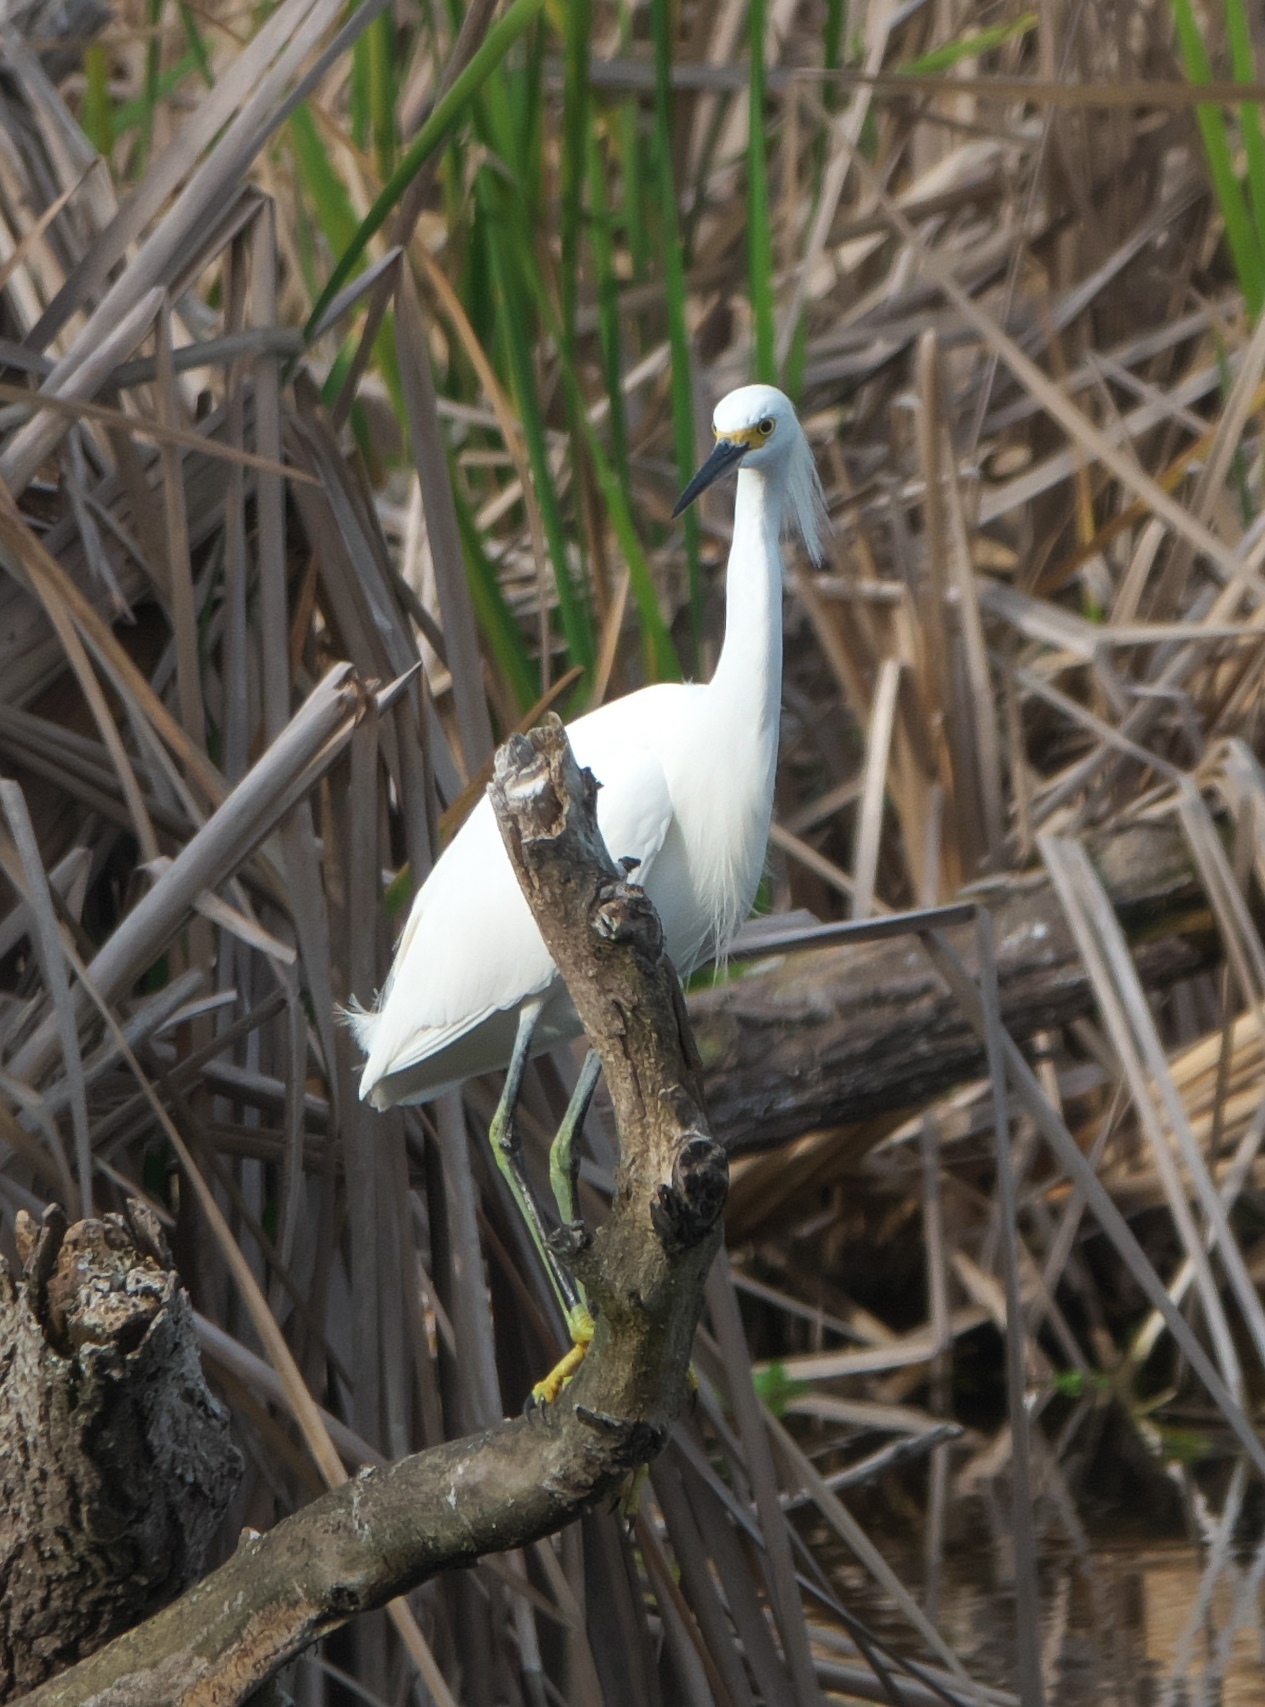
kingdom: Animalia
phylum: Chordata
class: Aves
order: Pelecaniformes
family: Ardeidae
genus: Egretta
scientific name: Egretta thula
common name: Snowy egret
